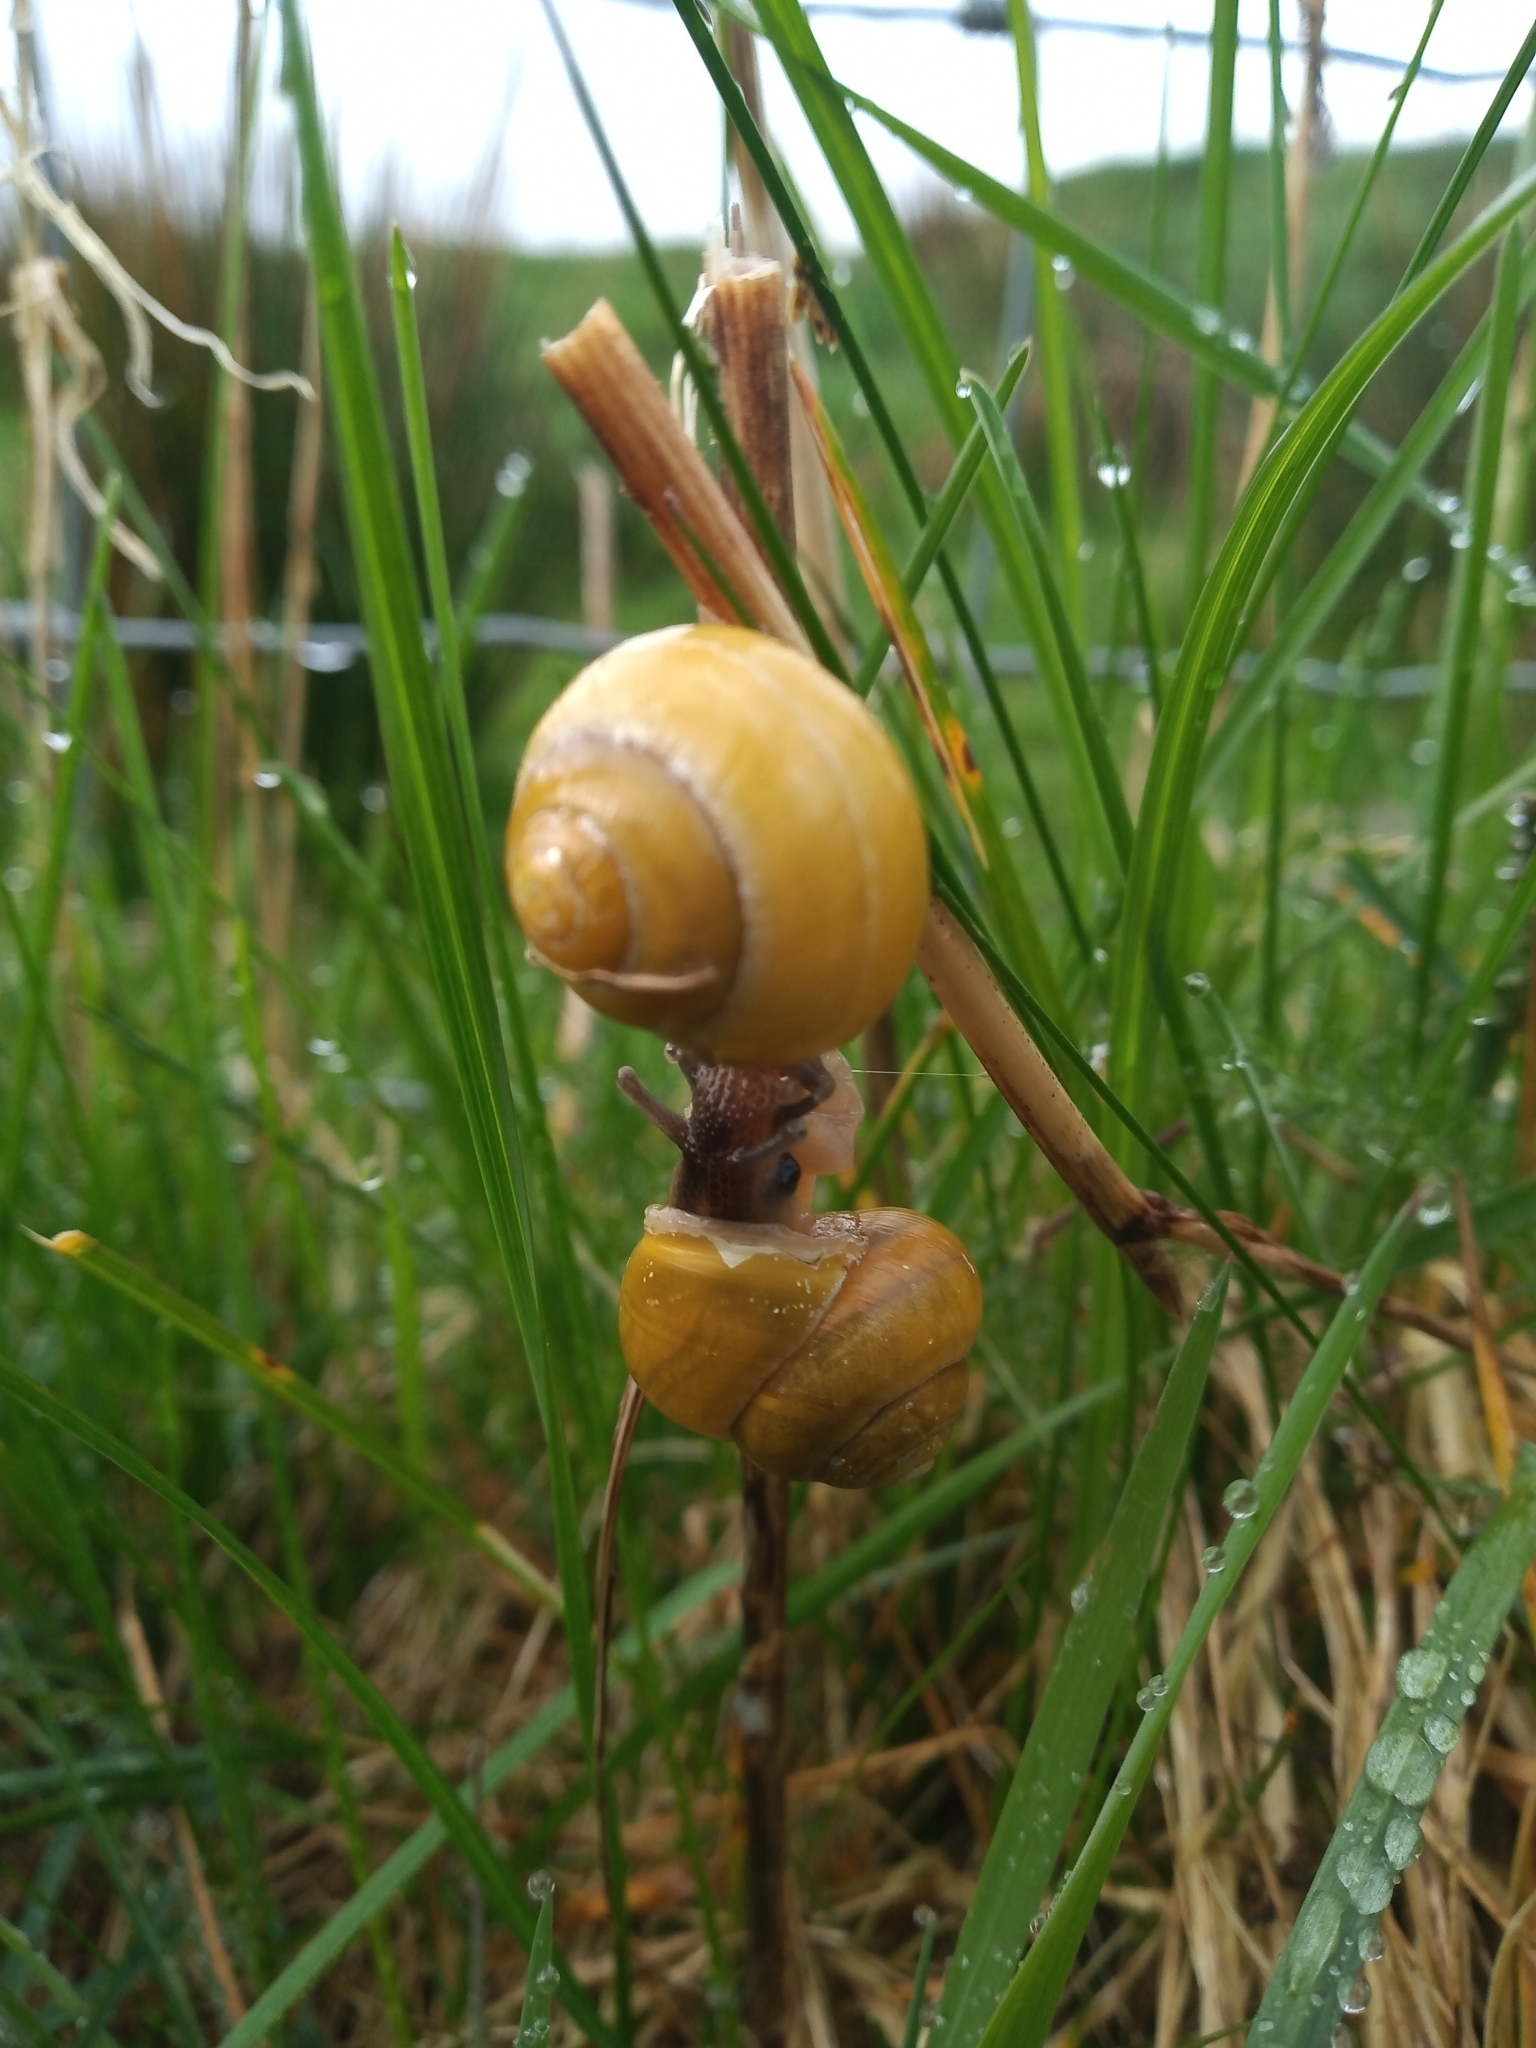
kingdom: Animalia
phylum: Mollusca
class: Gastropoda
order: Stylommatophora
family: Helicidae
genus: Cepaea
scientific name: Cepaea hortensis
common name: White-lip gardensnail
